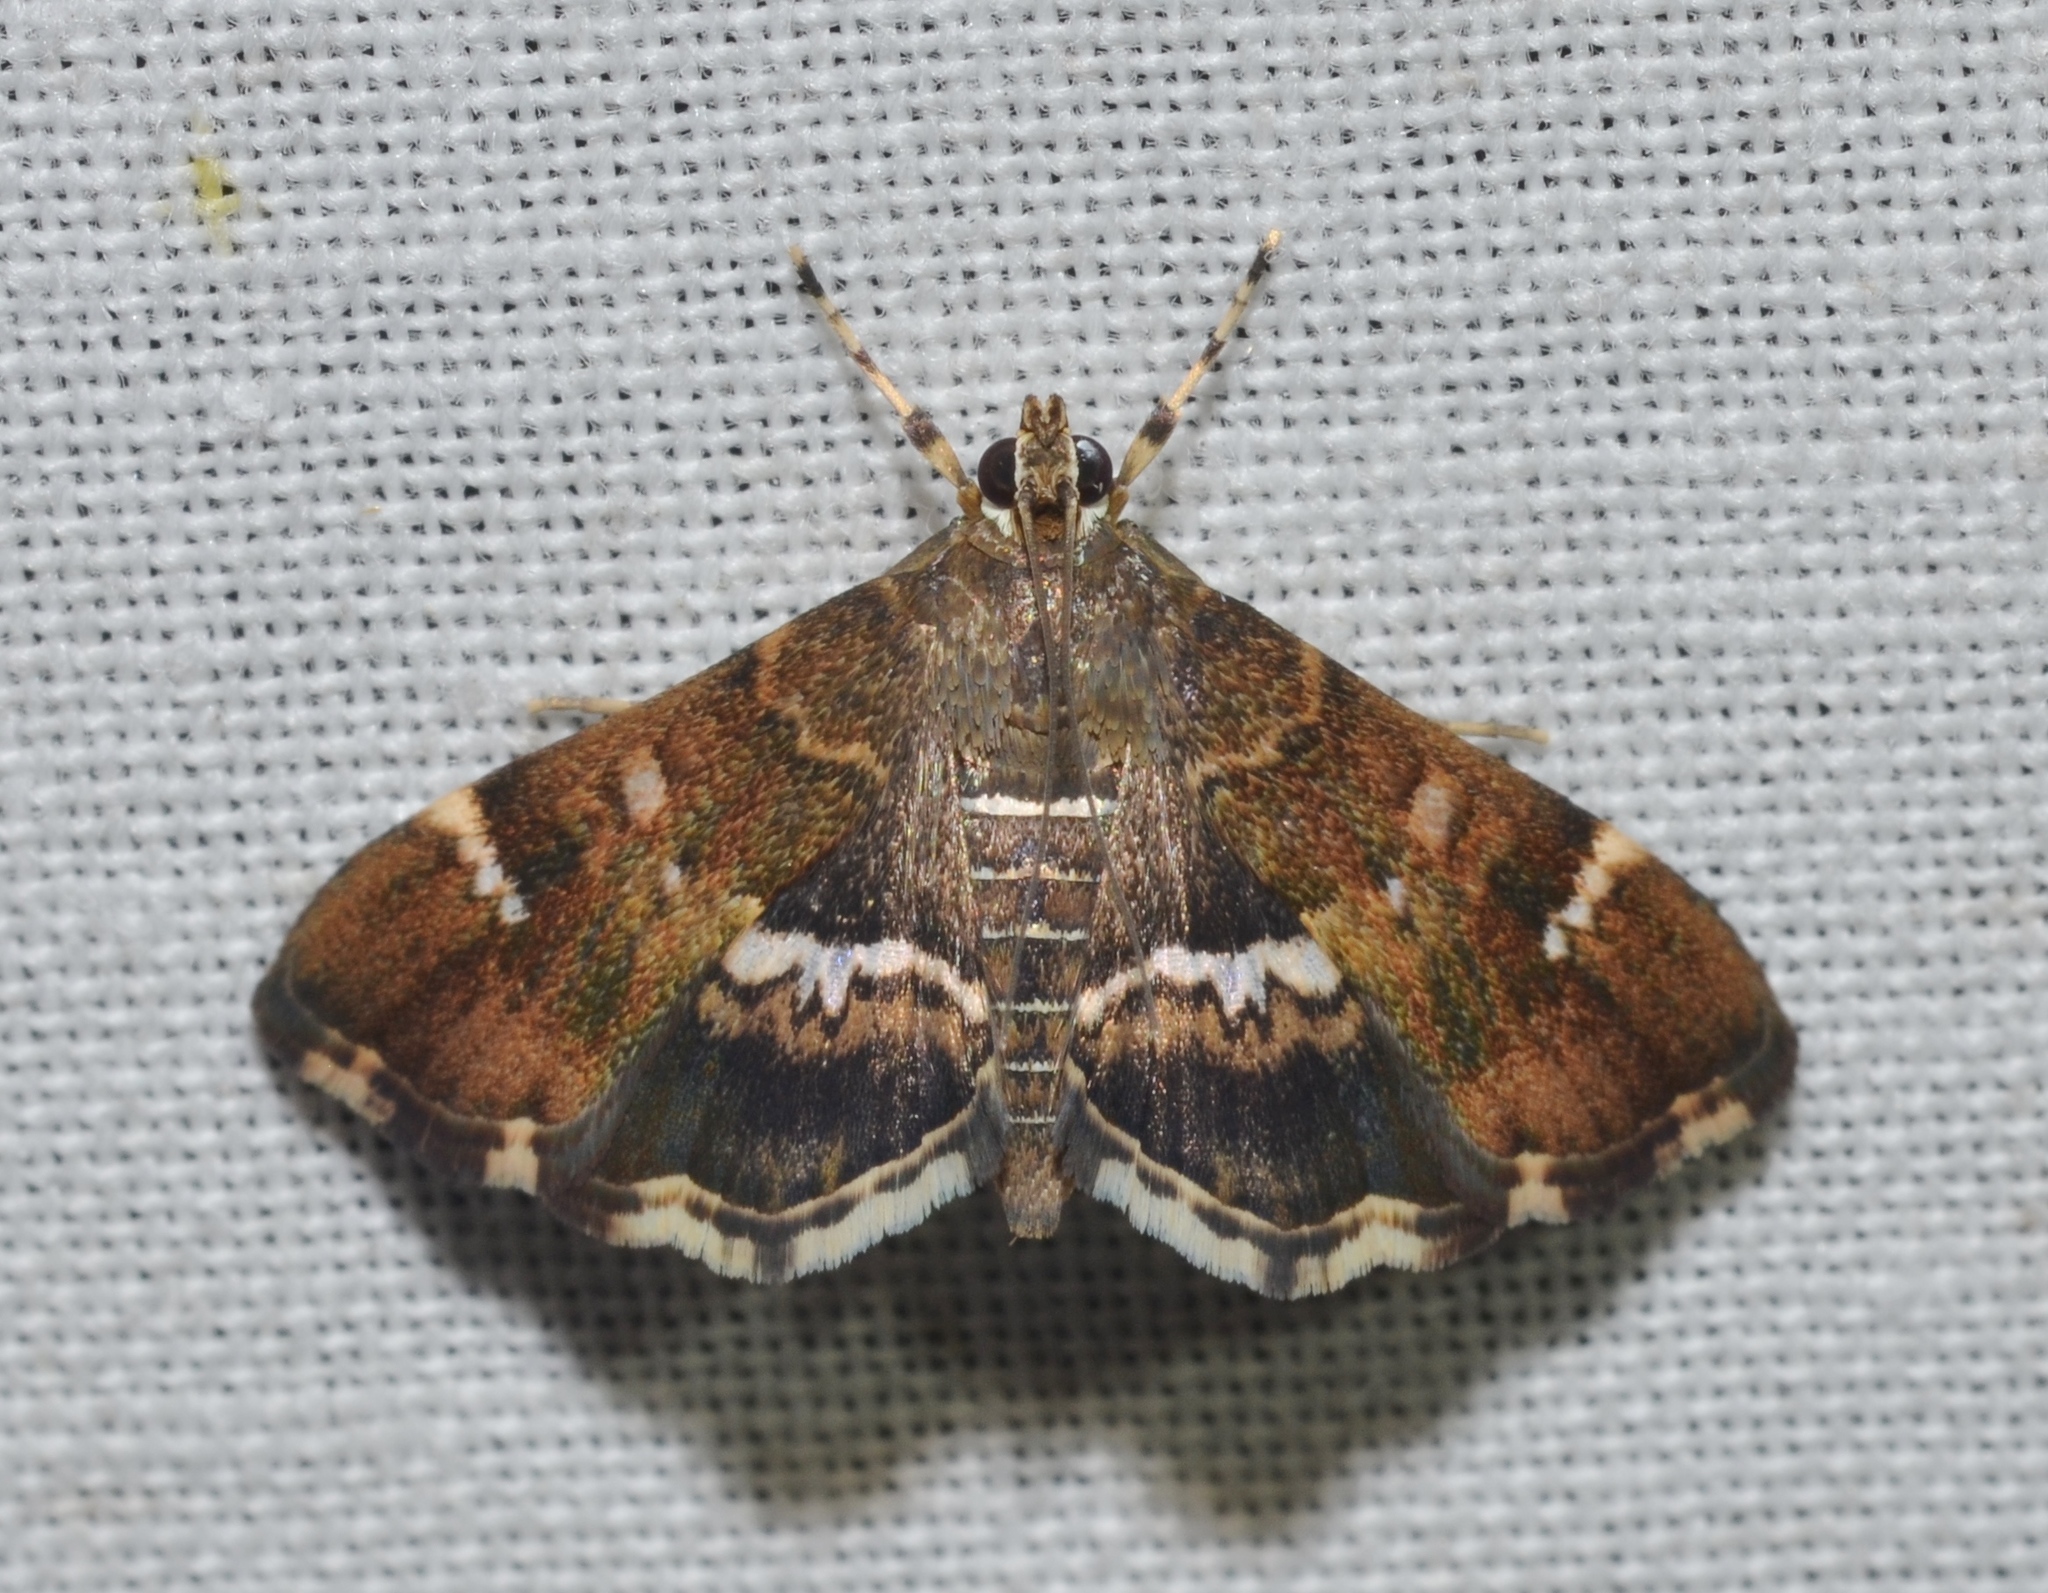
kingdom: Animalia
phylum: Arthropoda
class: Insecta
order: Lepidoptera
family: Crambidae
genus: Hymenia
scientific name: Hymenia perspectalis
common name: Spotted beet webworm
